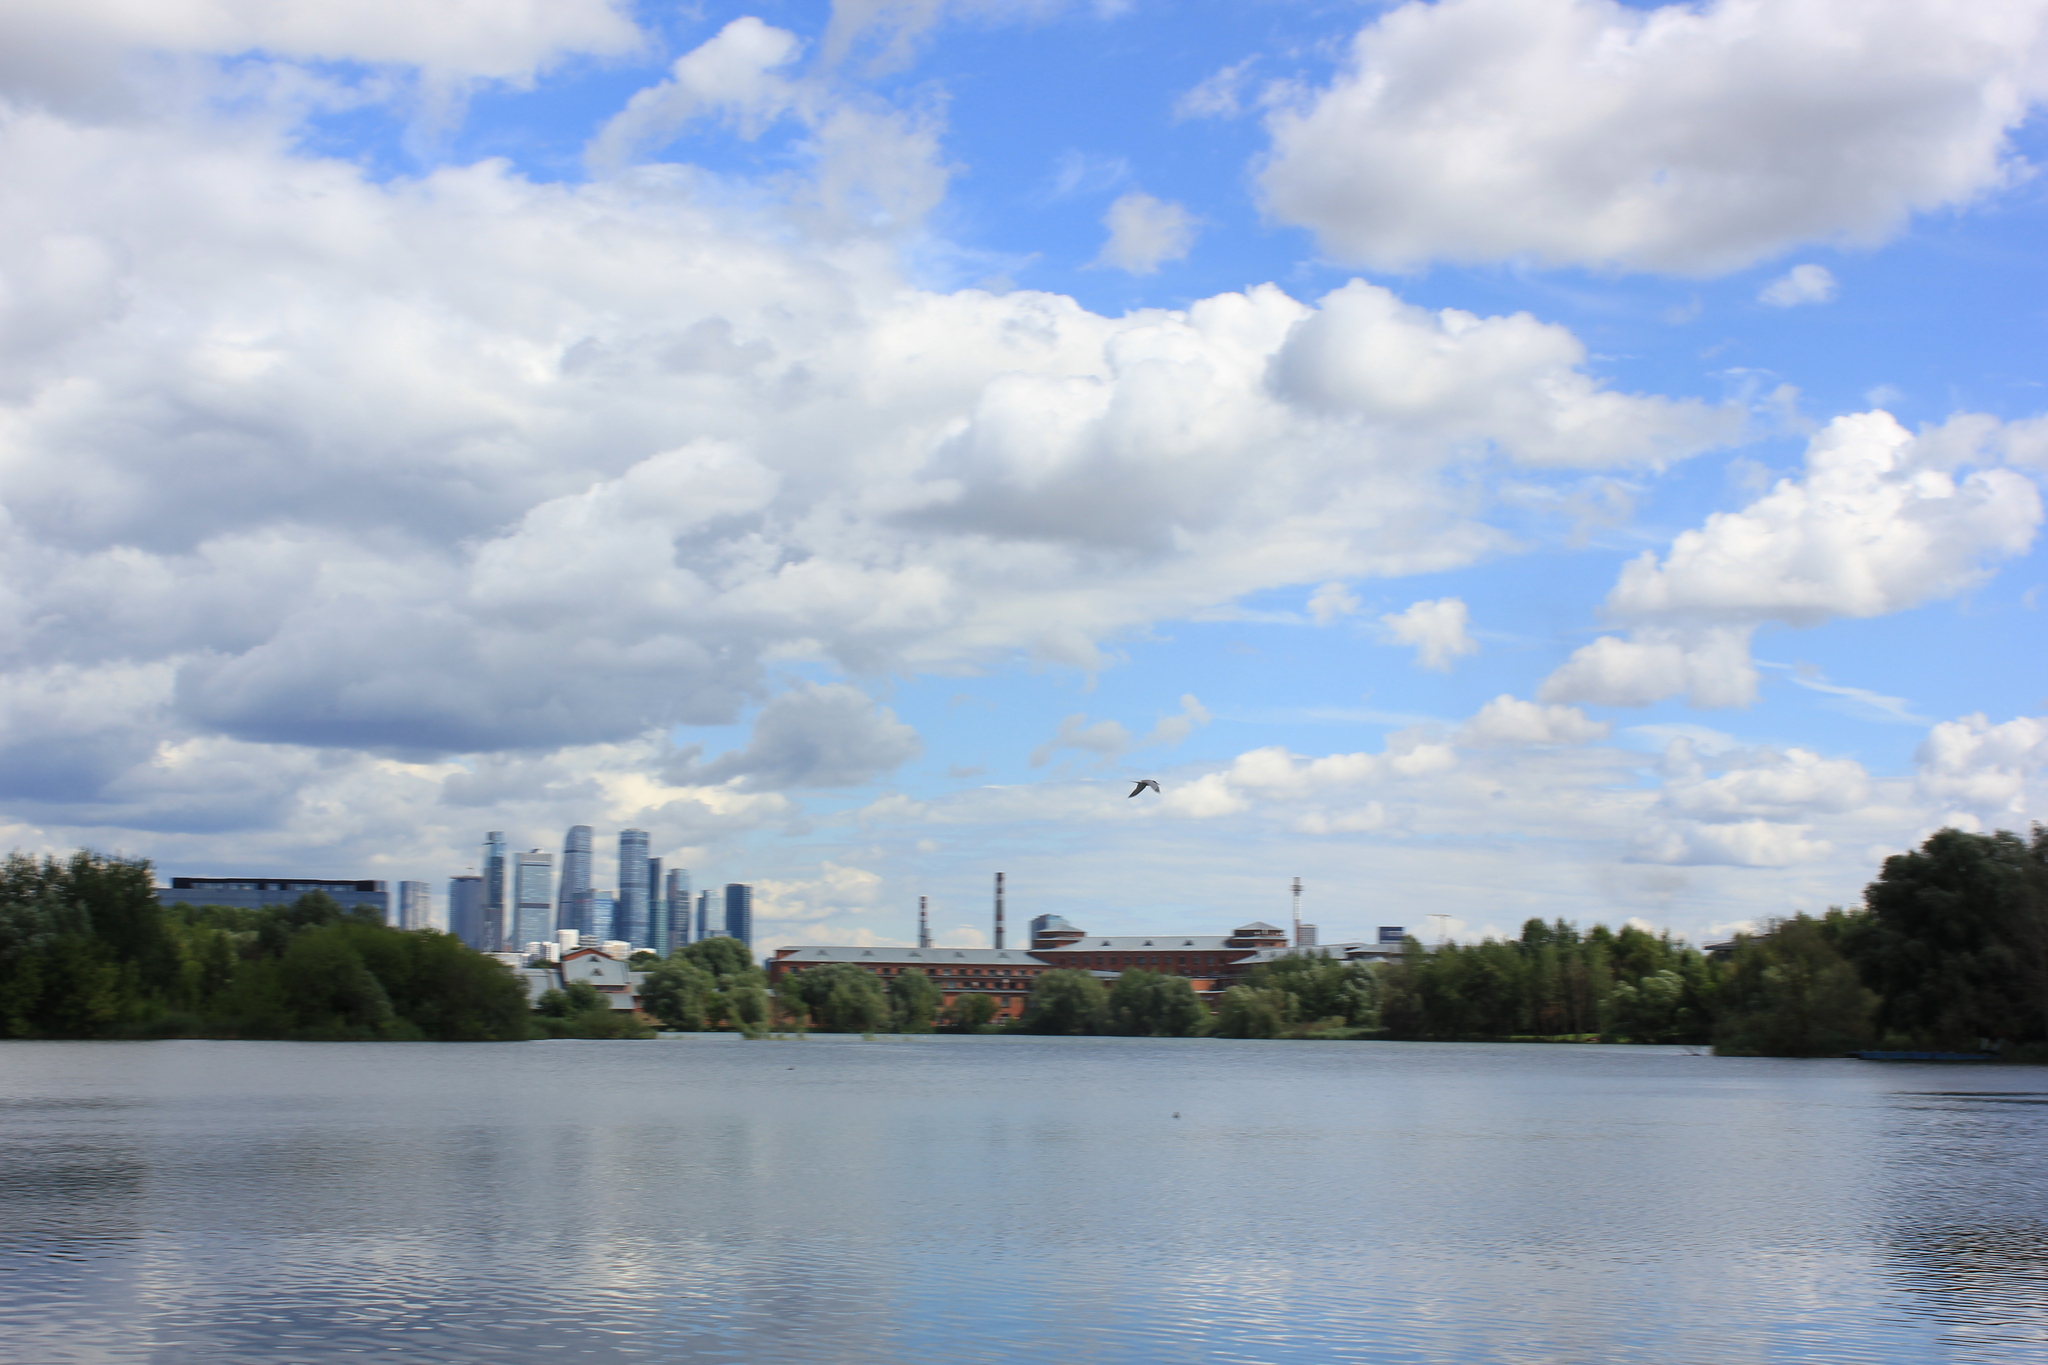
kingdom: Animalia
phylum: Chordata
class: Aves
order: Charadriiformes
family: Laridae
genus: Sterna
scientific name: Sterna hirundo
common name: Common tern
